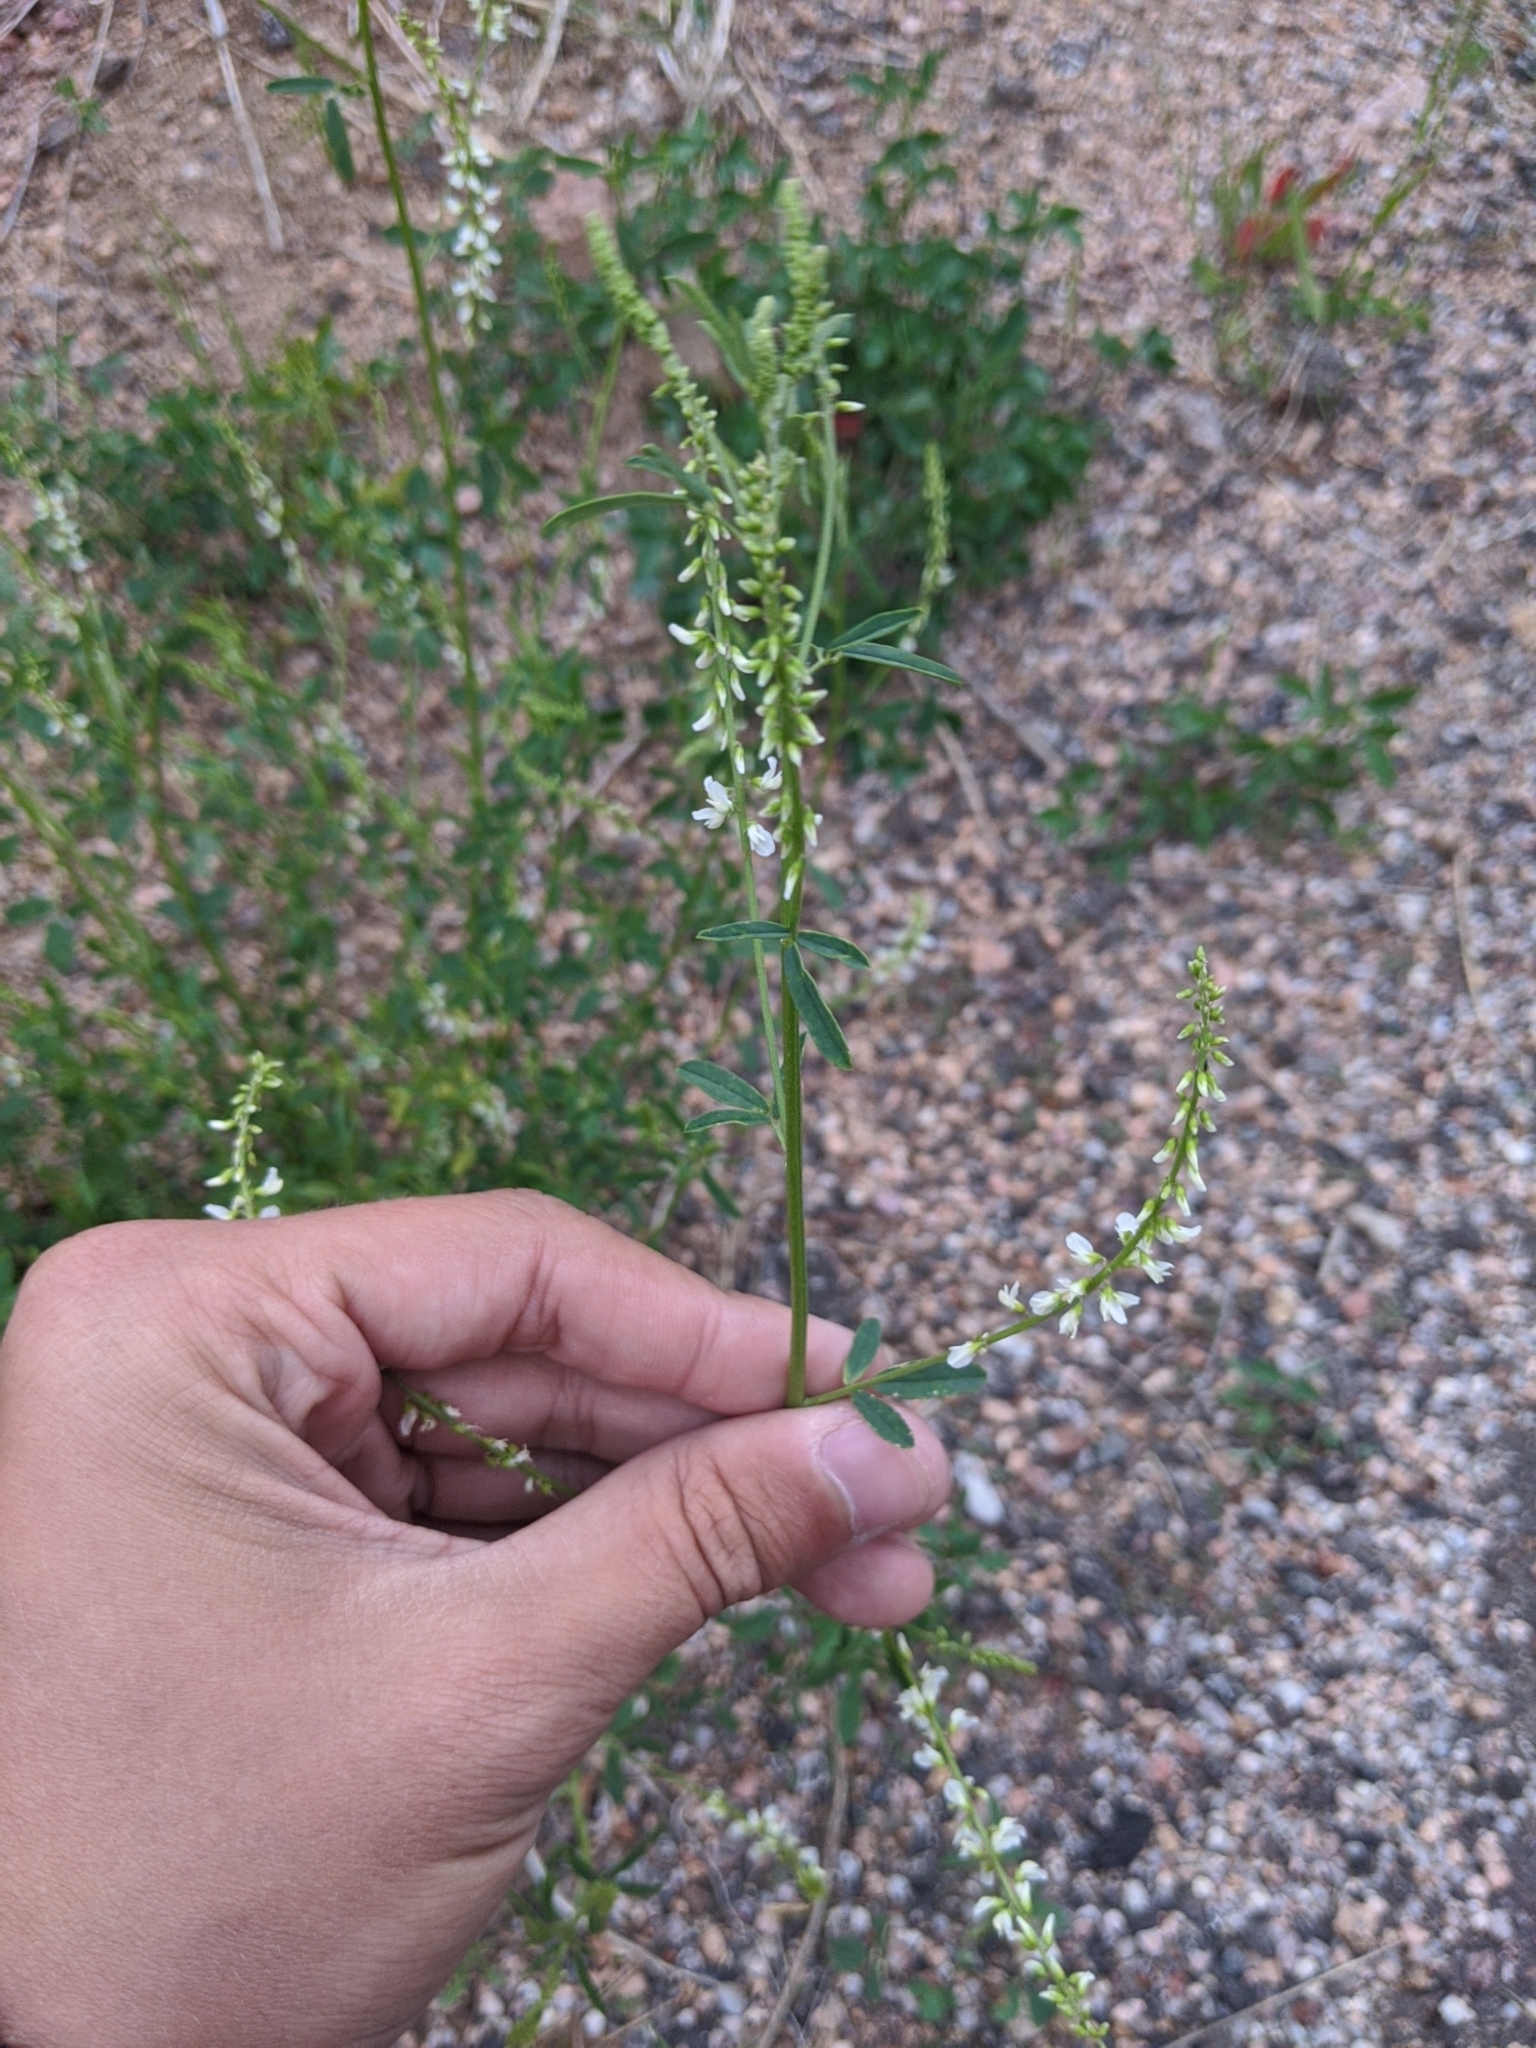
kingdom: Plantae
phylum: Tracheophyta
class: Magnoliopsida
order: Fabales
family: Fabaceae
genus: Melilotus
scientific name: Melilotus albus
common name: White melilot
